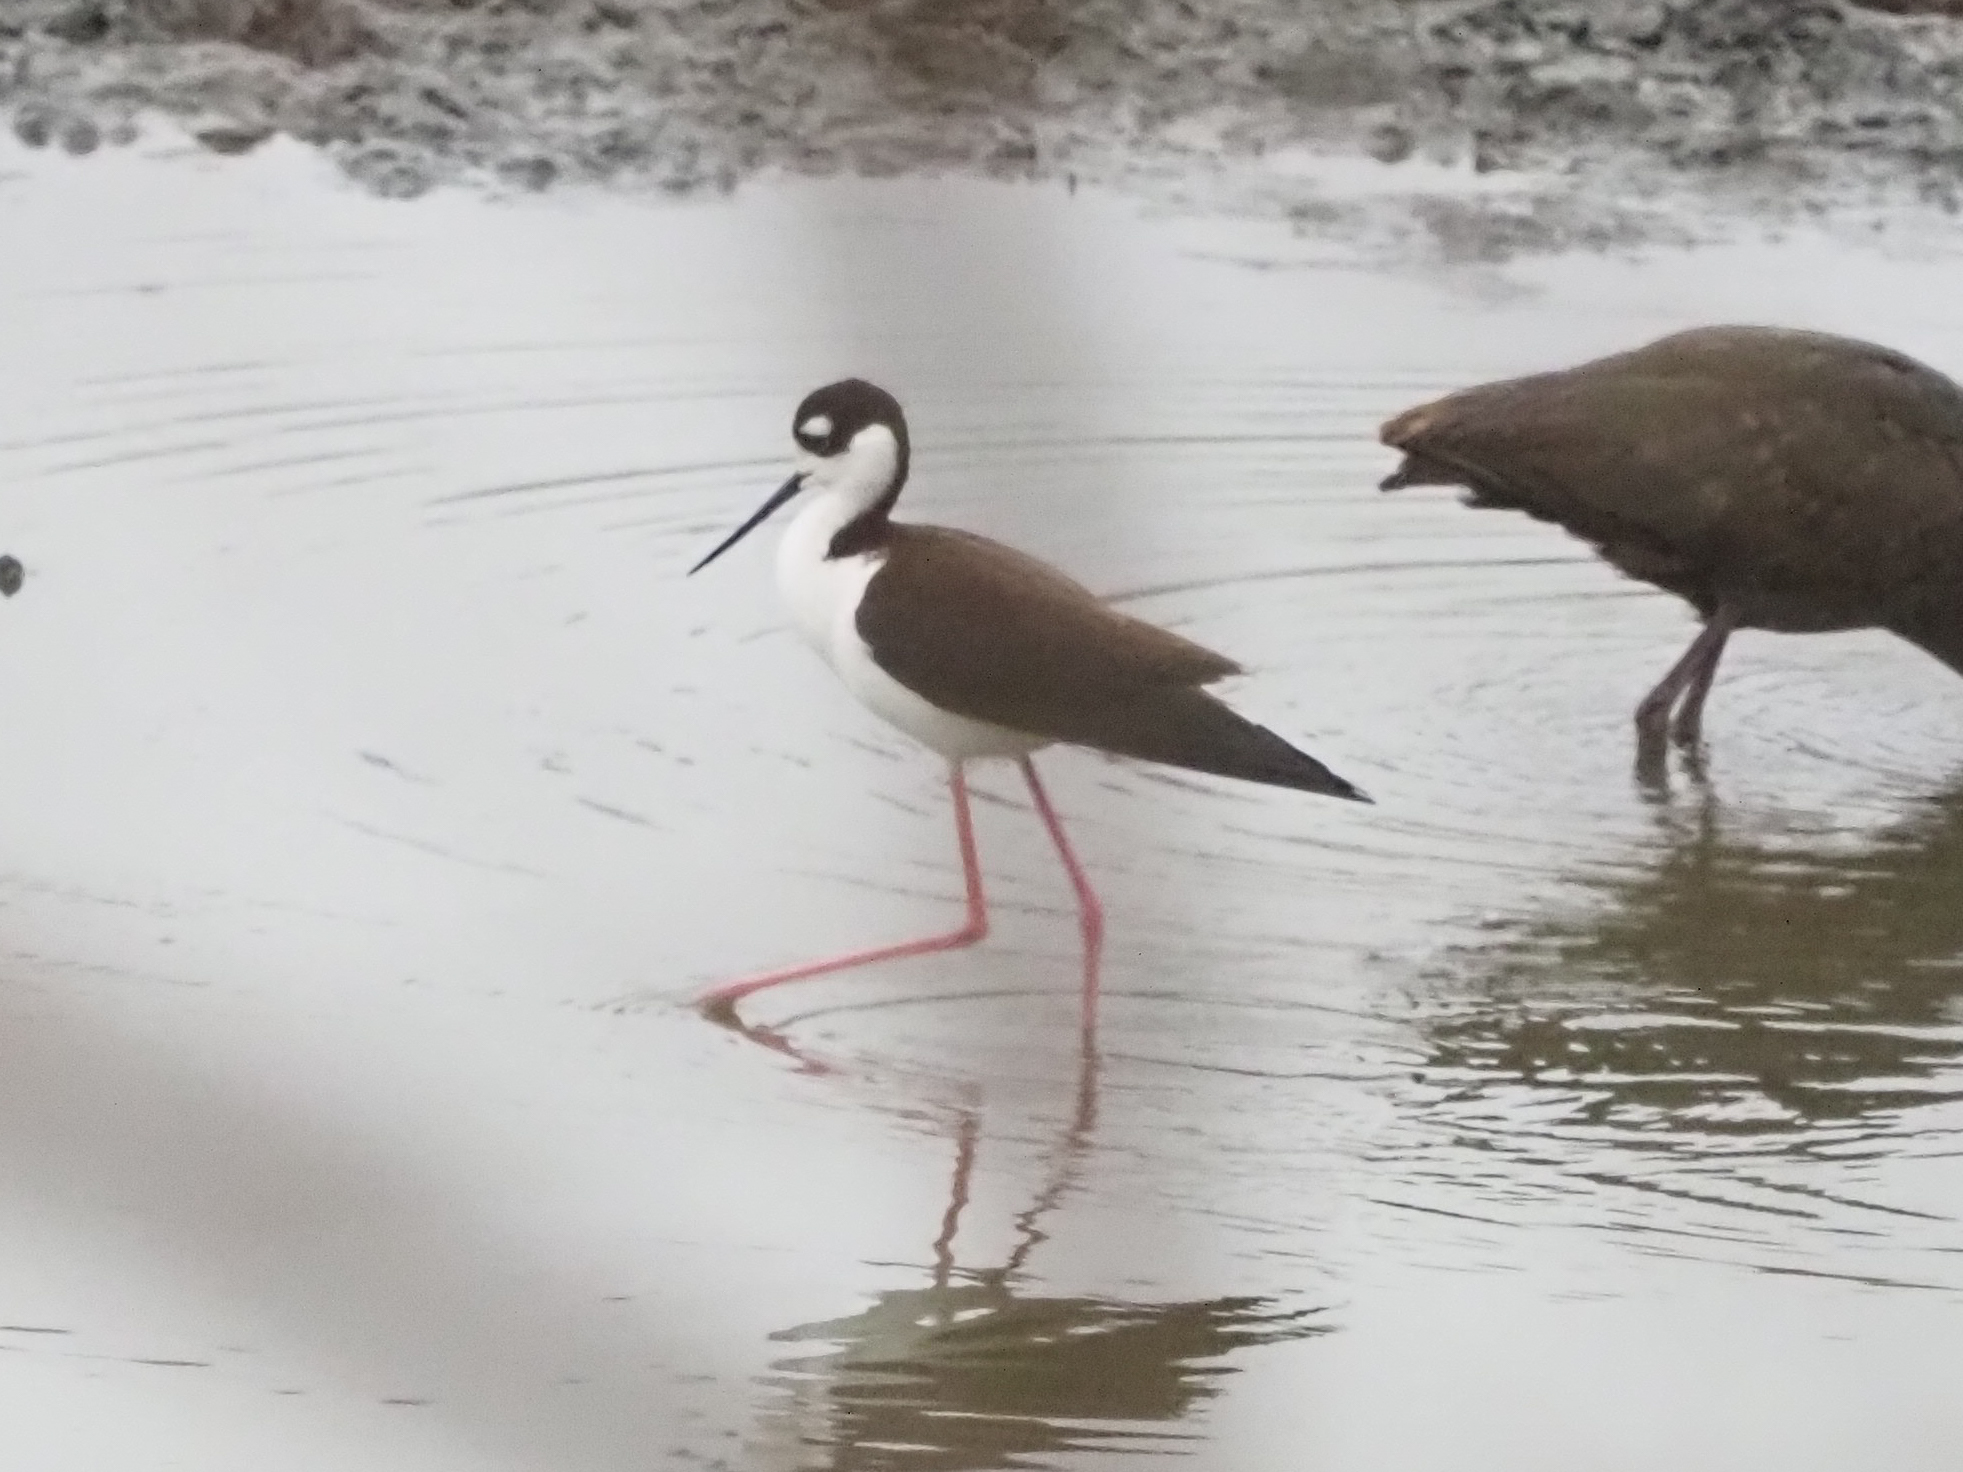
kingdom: Animalia
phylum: Chordata
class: Aves
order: Charadriiformes
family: Recurvirostridae
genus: Himantopus
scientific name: Himantopus mexicanus
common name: Black-necked stilt
